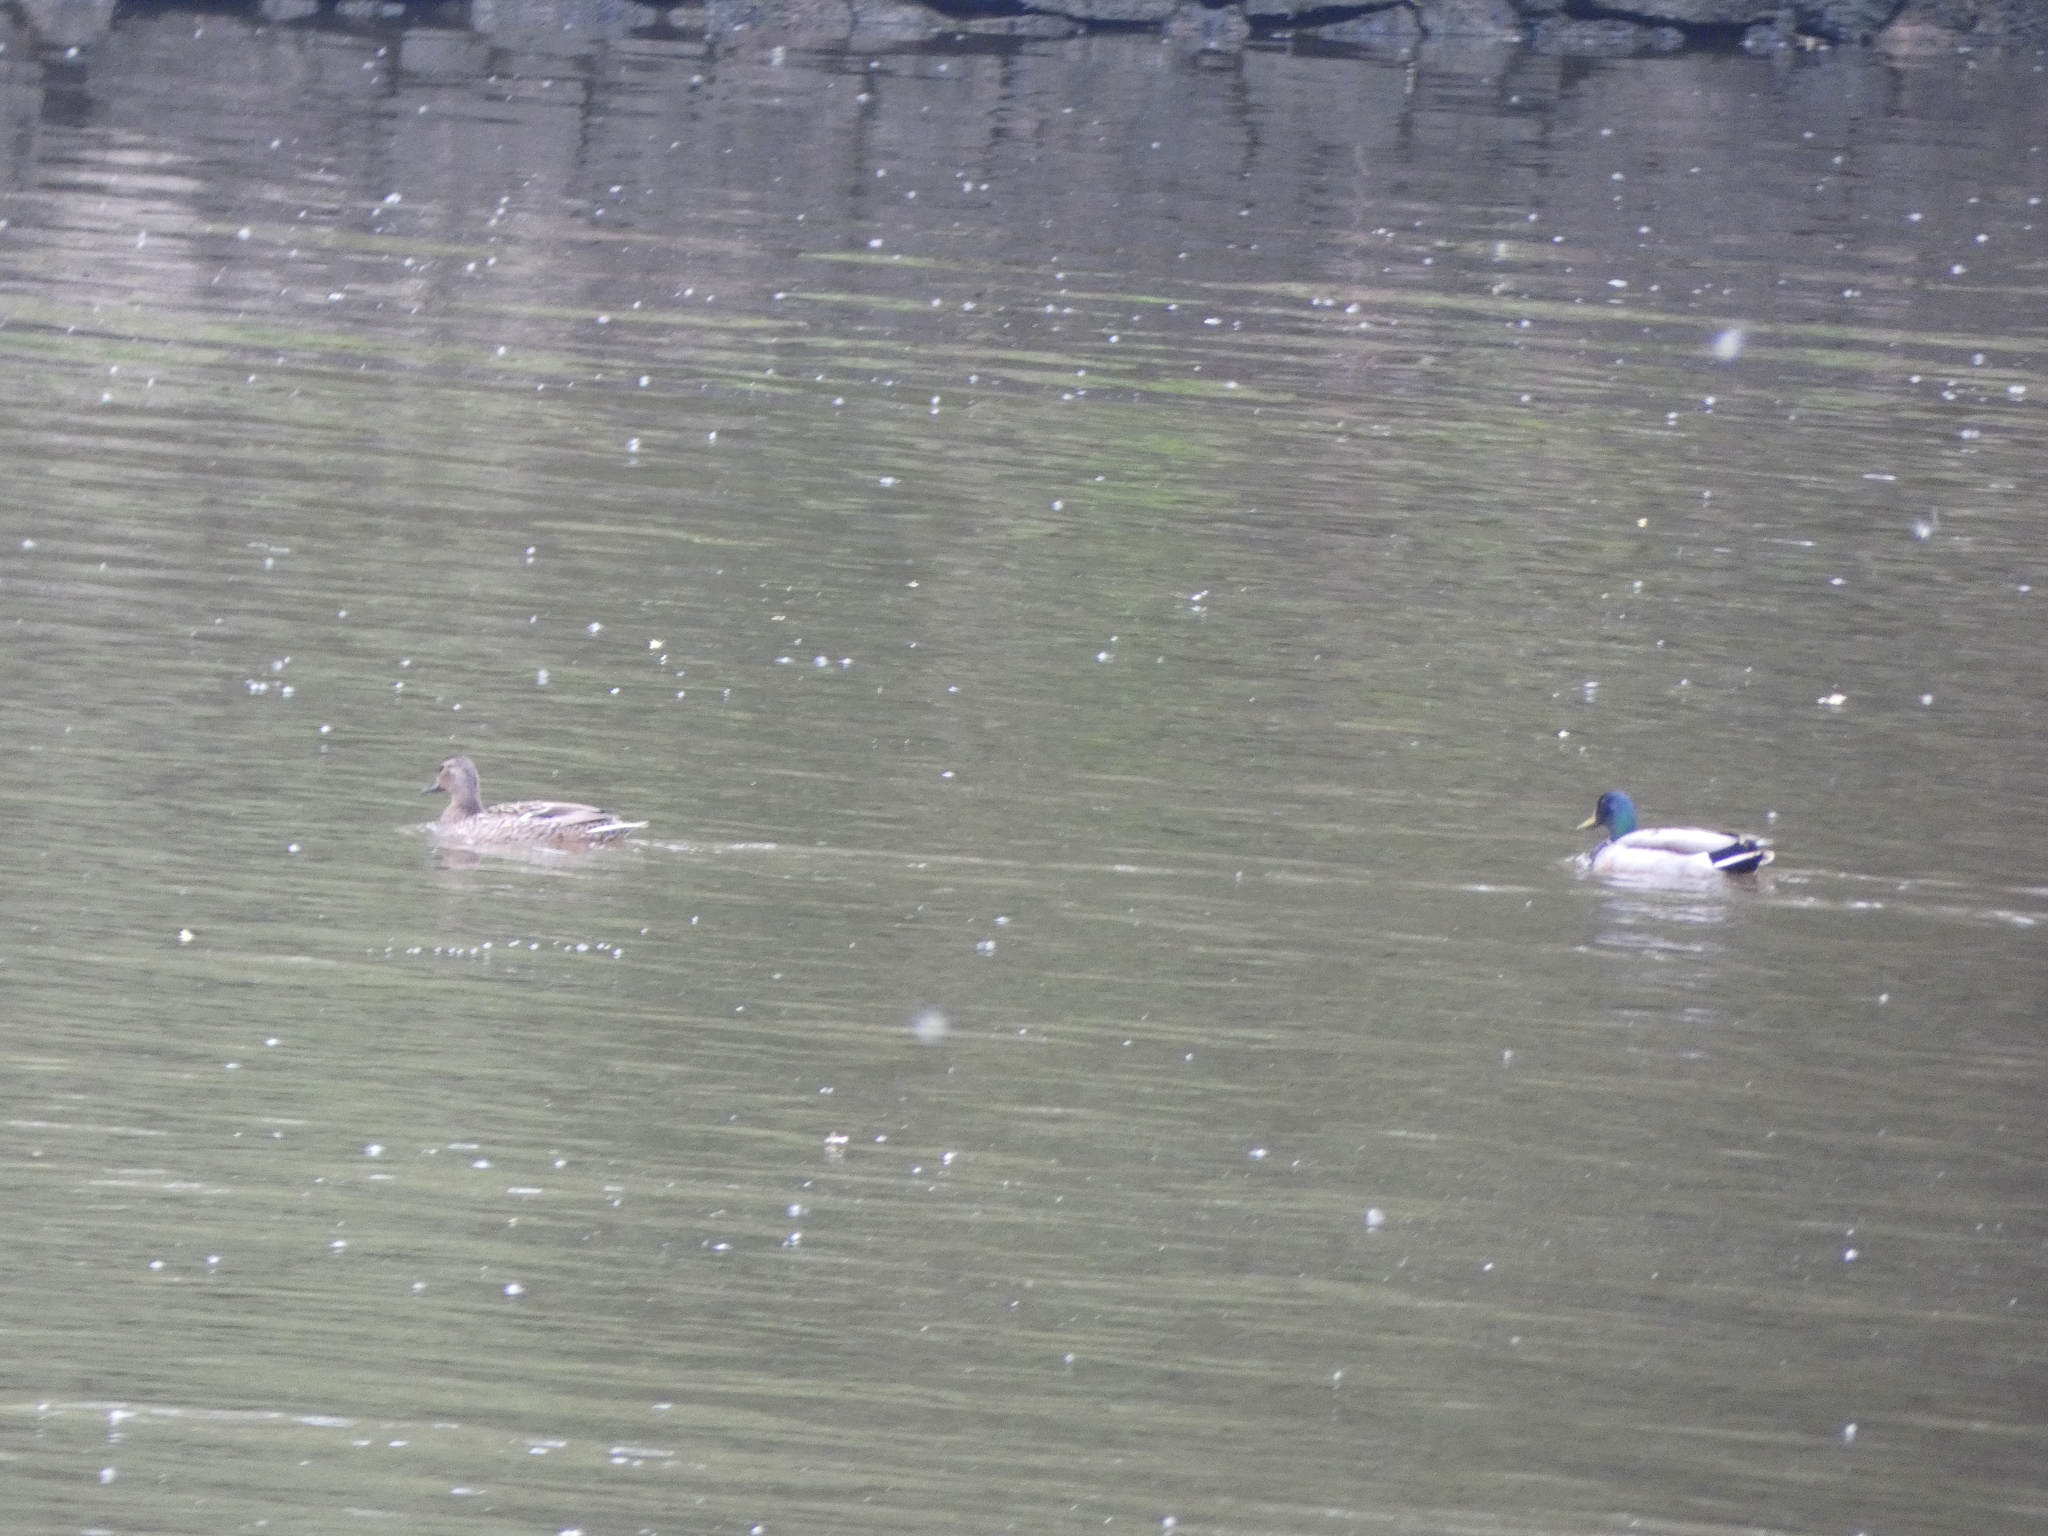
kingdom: Animalia
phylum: Chordata
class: Aves
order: Anseriformes
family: Anatidae
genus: Anas
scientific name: Anas platyrhynchos
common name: Mallard
